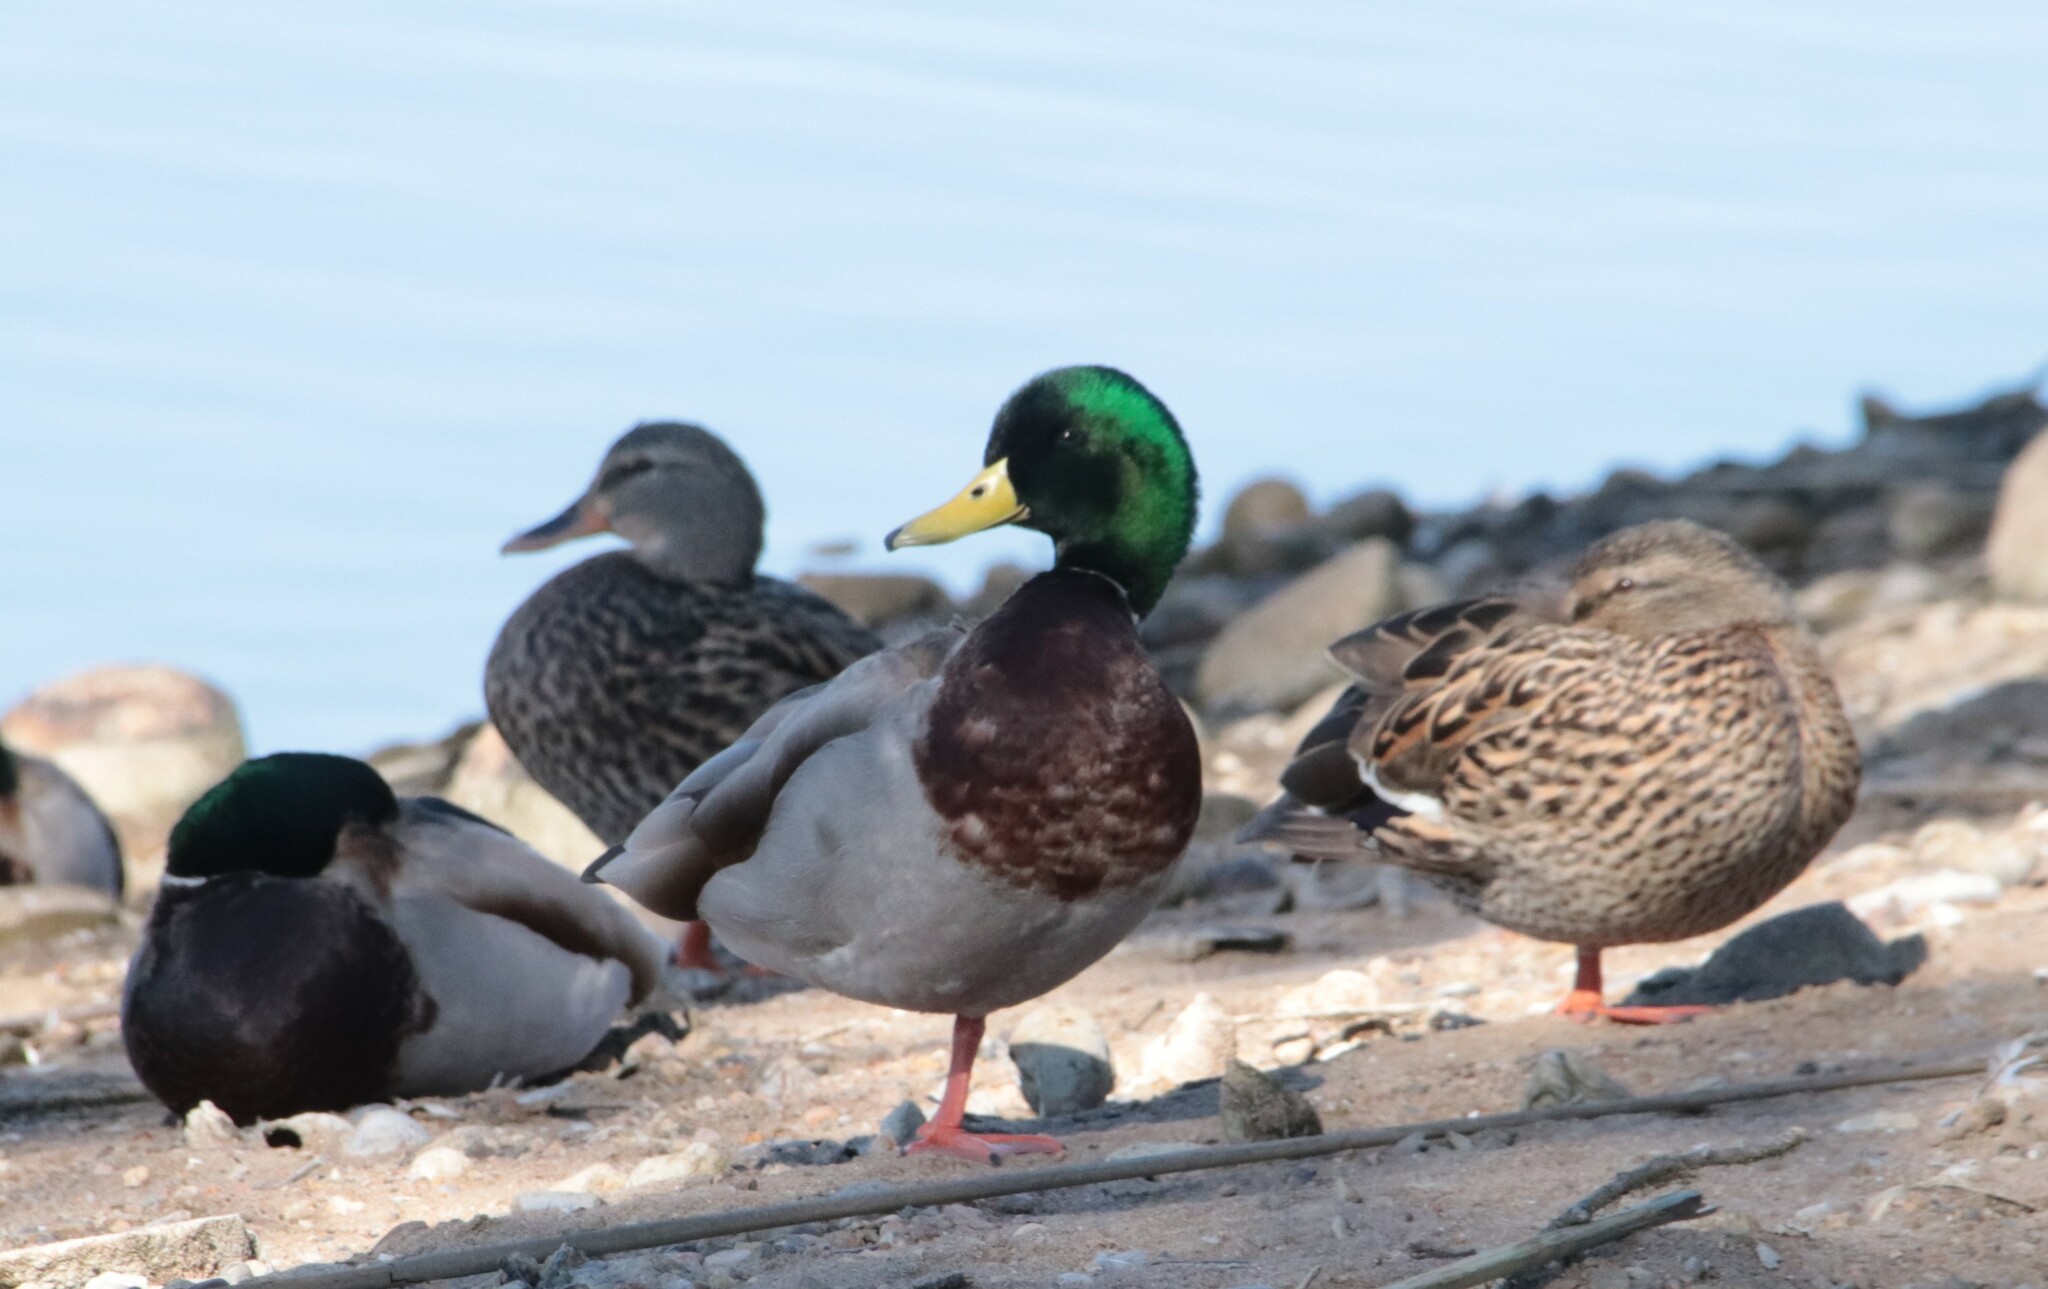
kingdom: Animalia
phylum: Chordata
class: Aves
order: Anseriformes
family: Anatidae
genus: Anas
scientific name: Anas platyrhynchos
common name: Mallard
